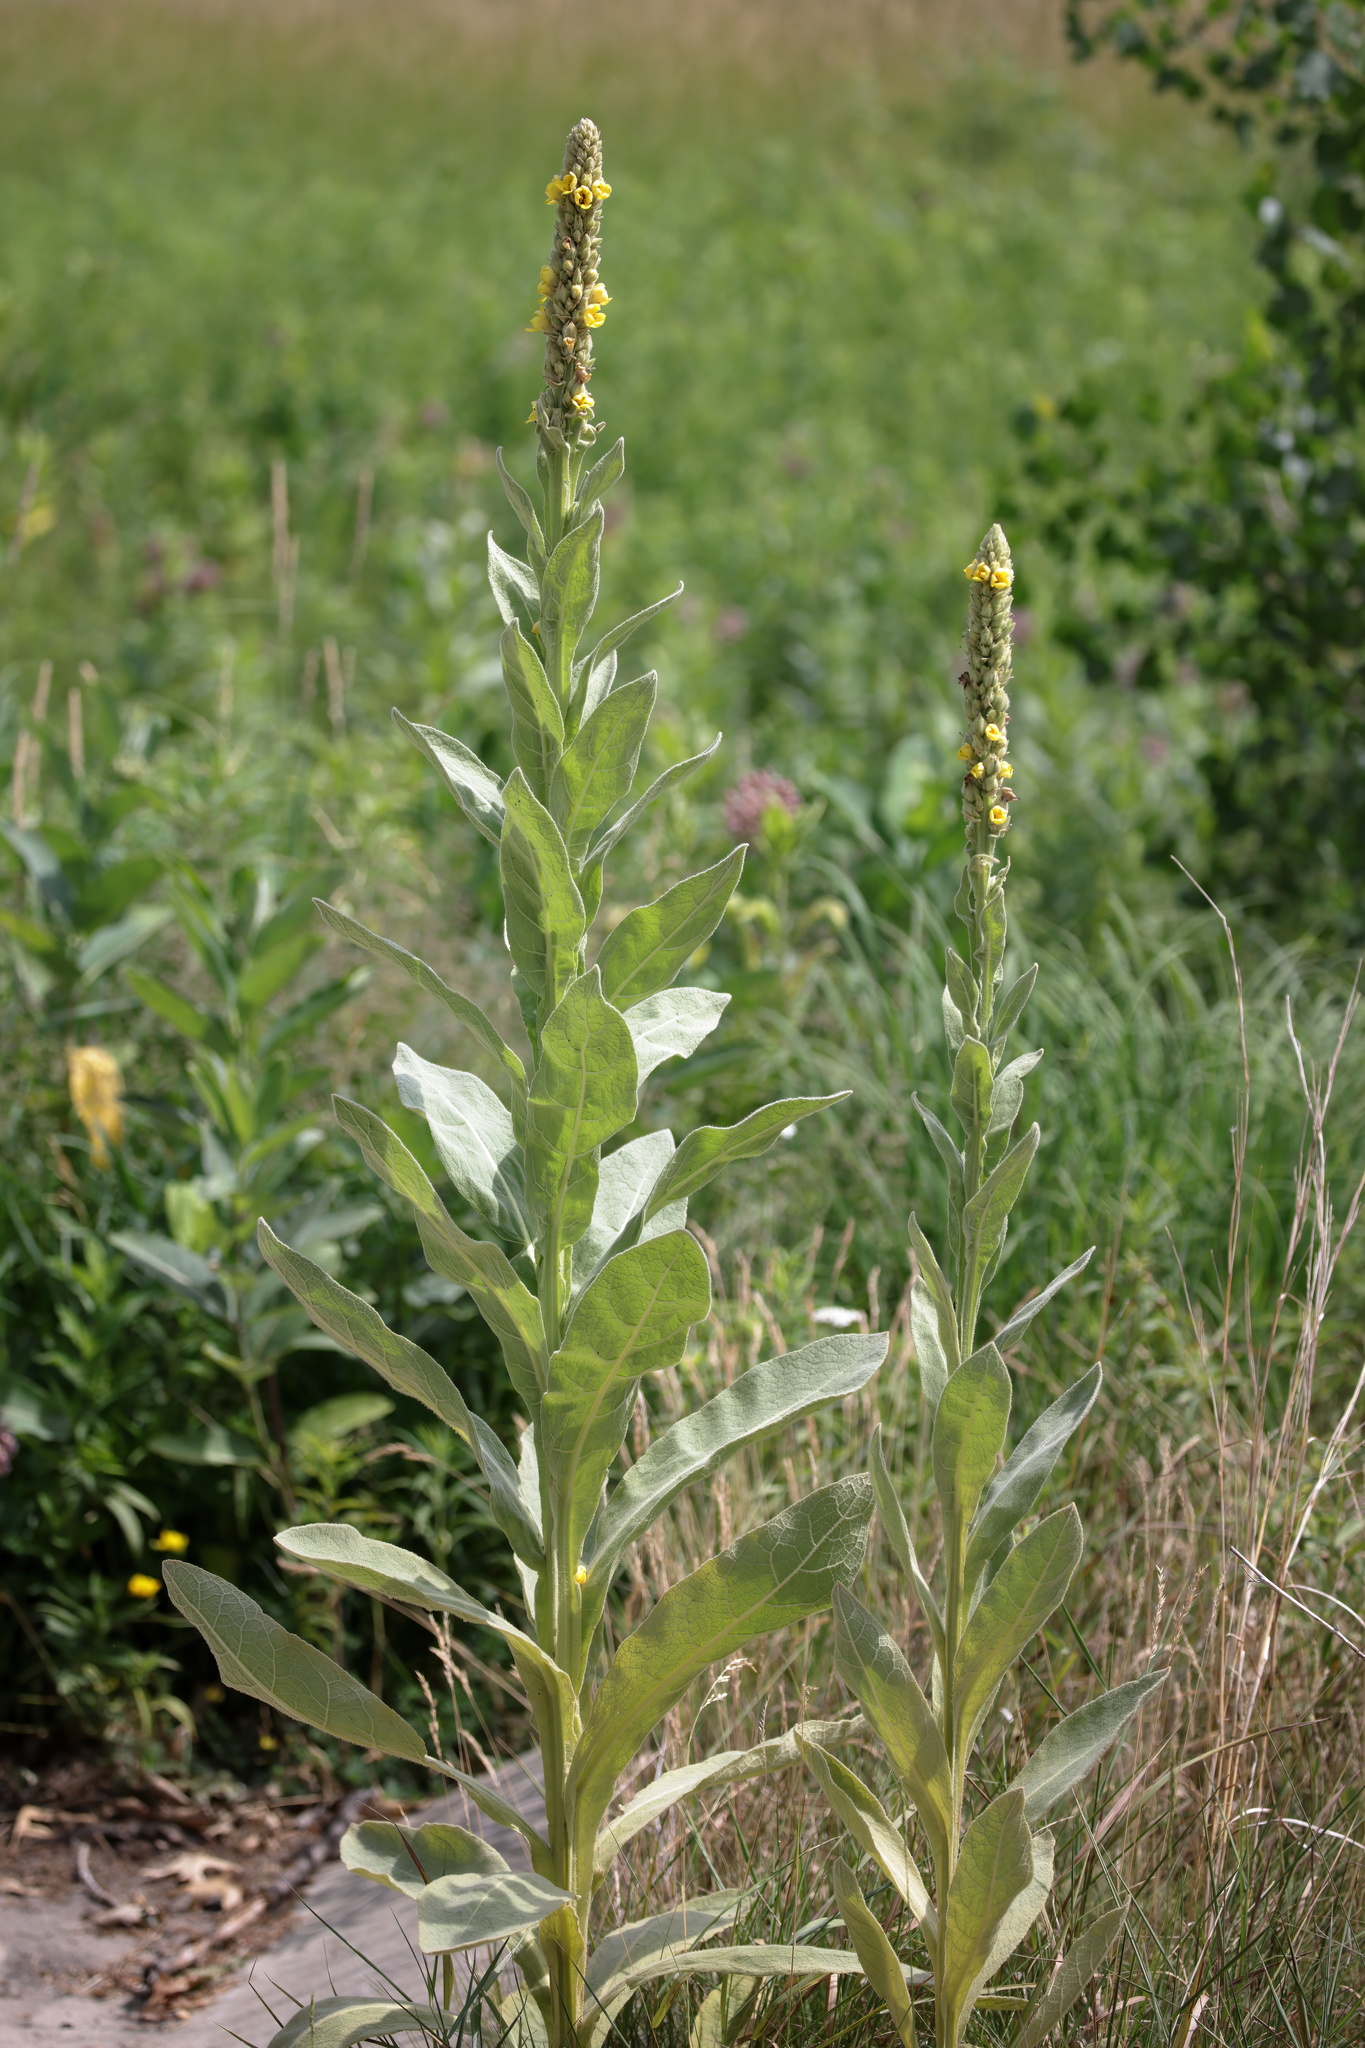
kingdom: Plantae
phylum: Tracheophyta
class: Magnoliopsida
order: Lamiales
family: Scrophulariaceae
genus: Verbascum
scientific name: Verbascum thapsus
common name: Common mullein
